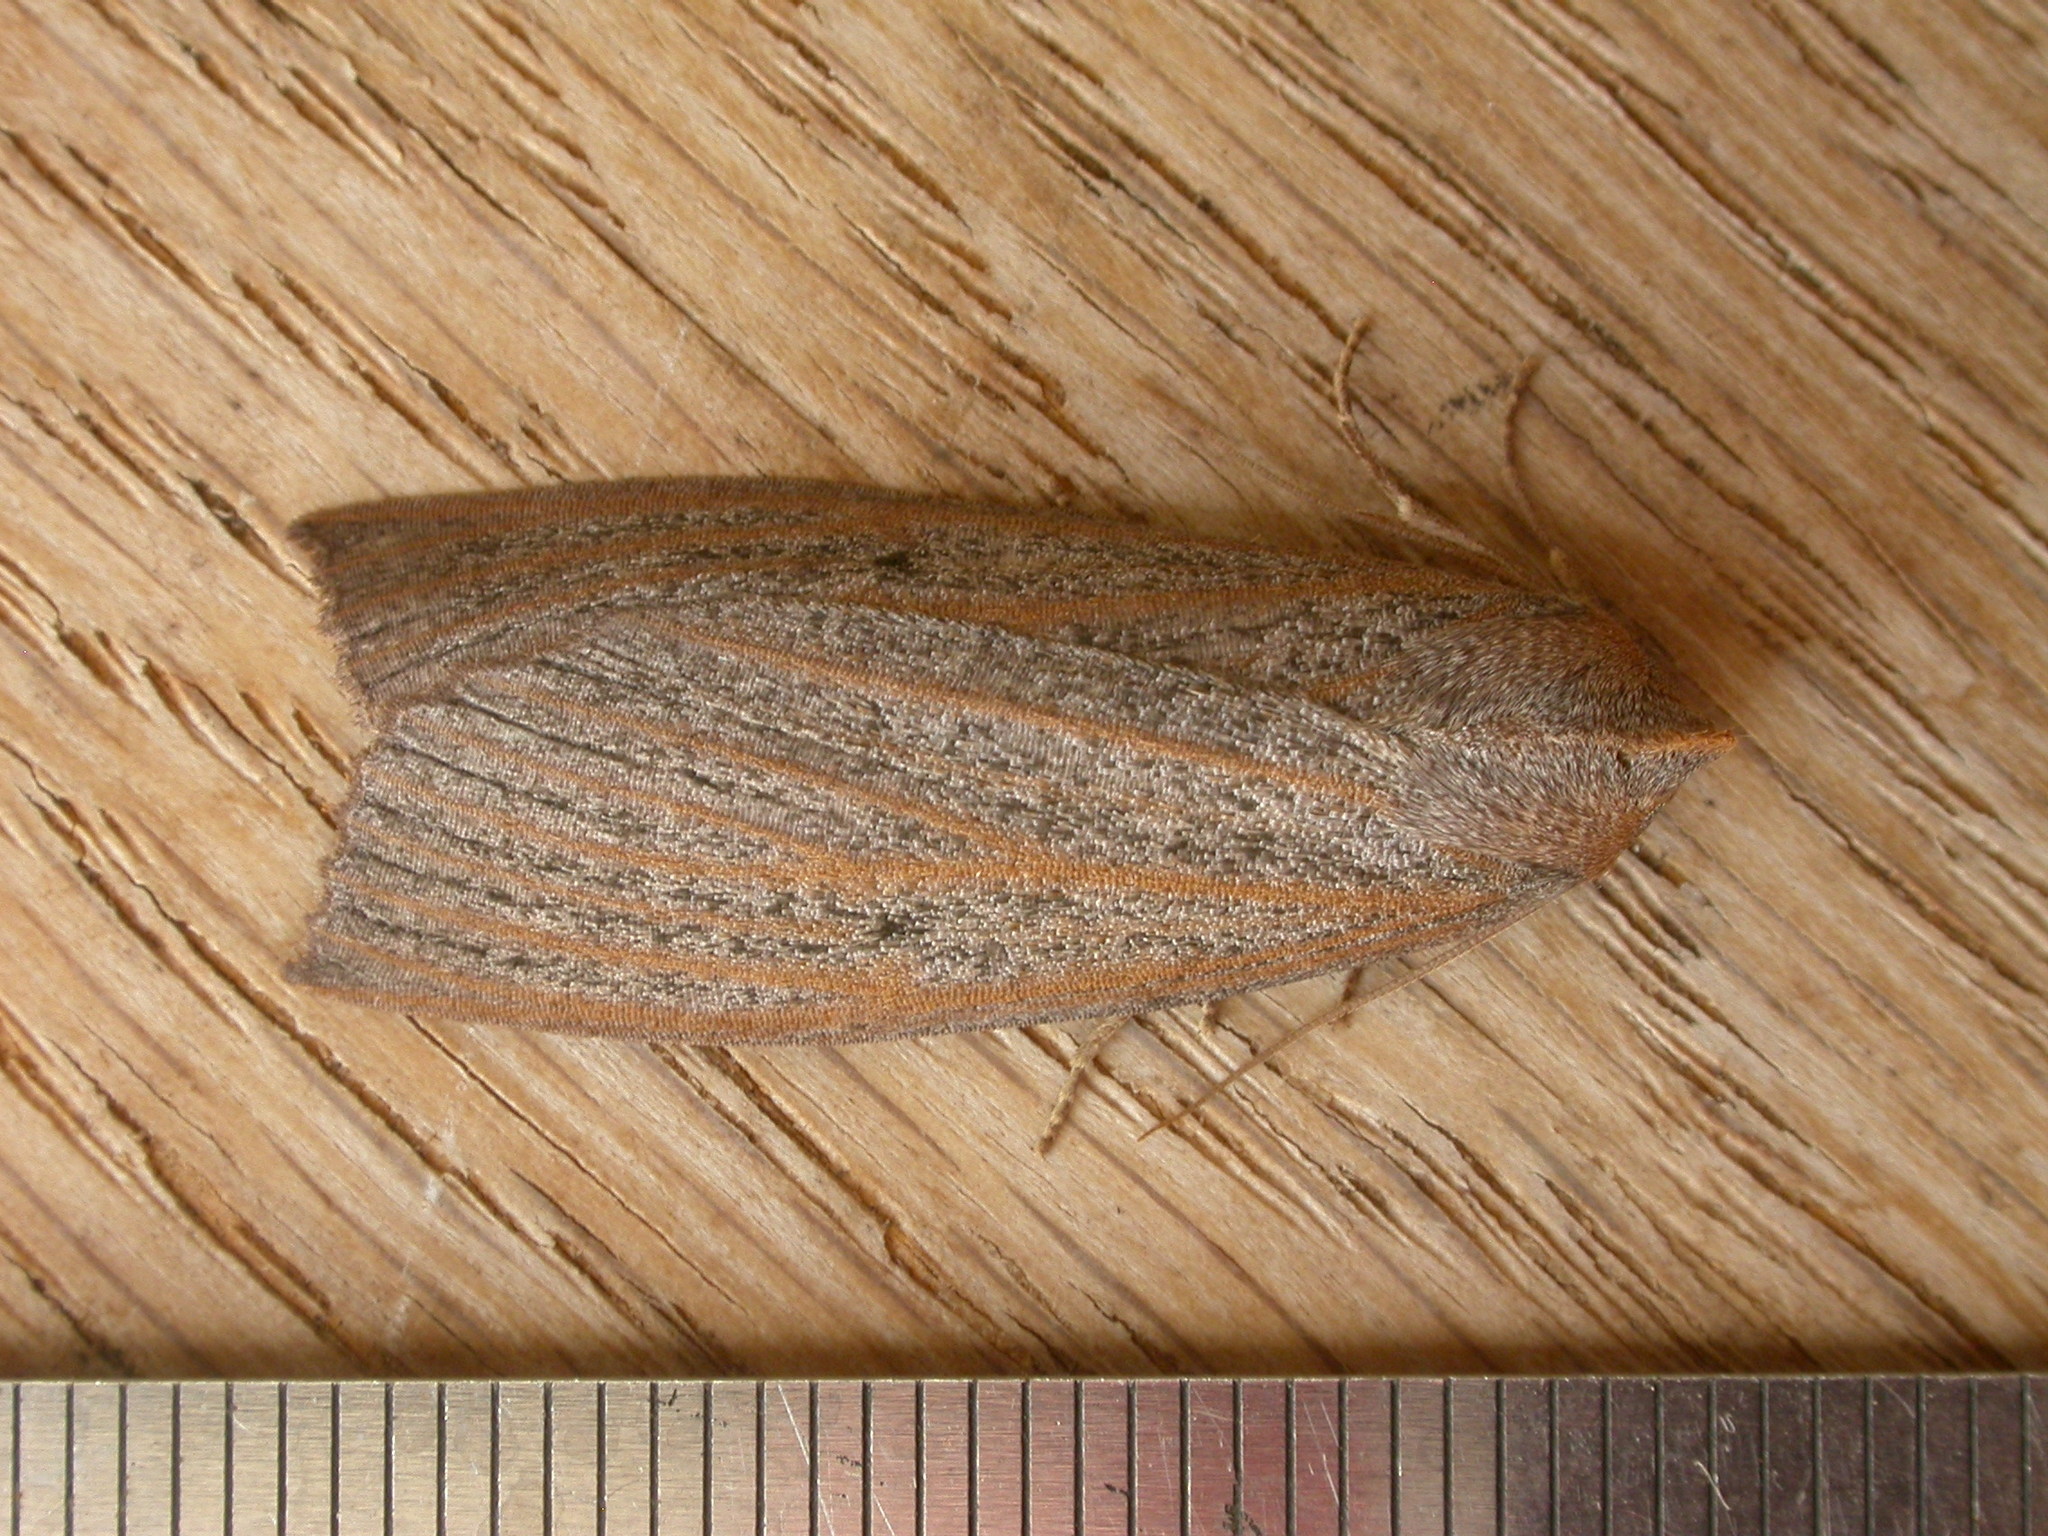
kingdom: Animalia
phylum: Arthropoda
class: Insecta
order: Lepidoptera
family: Geometridae
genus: Paralaea
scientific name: Paralaea porphyrinaria
